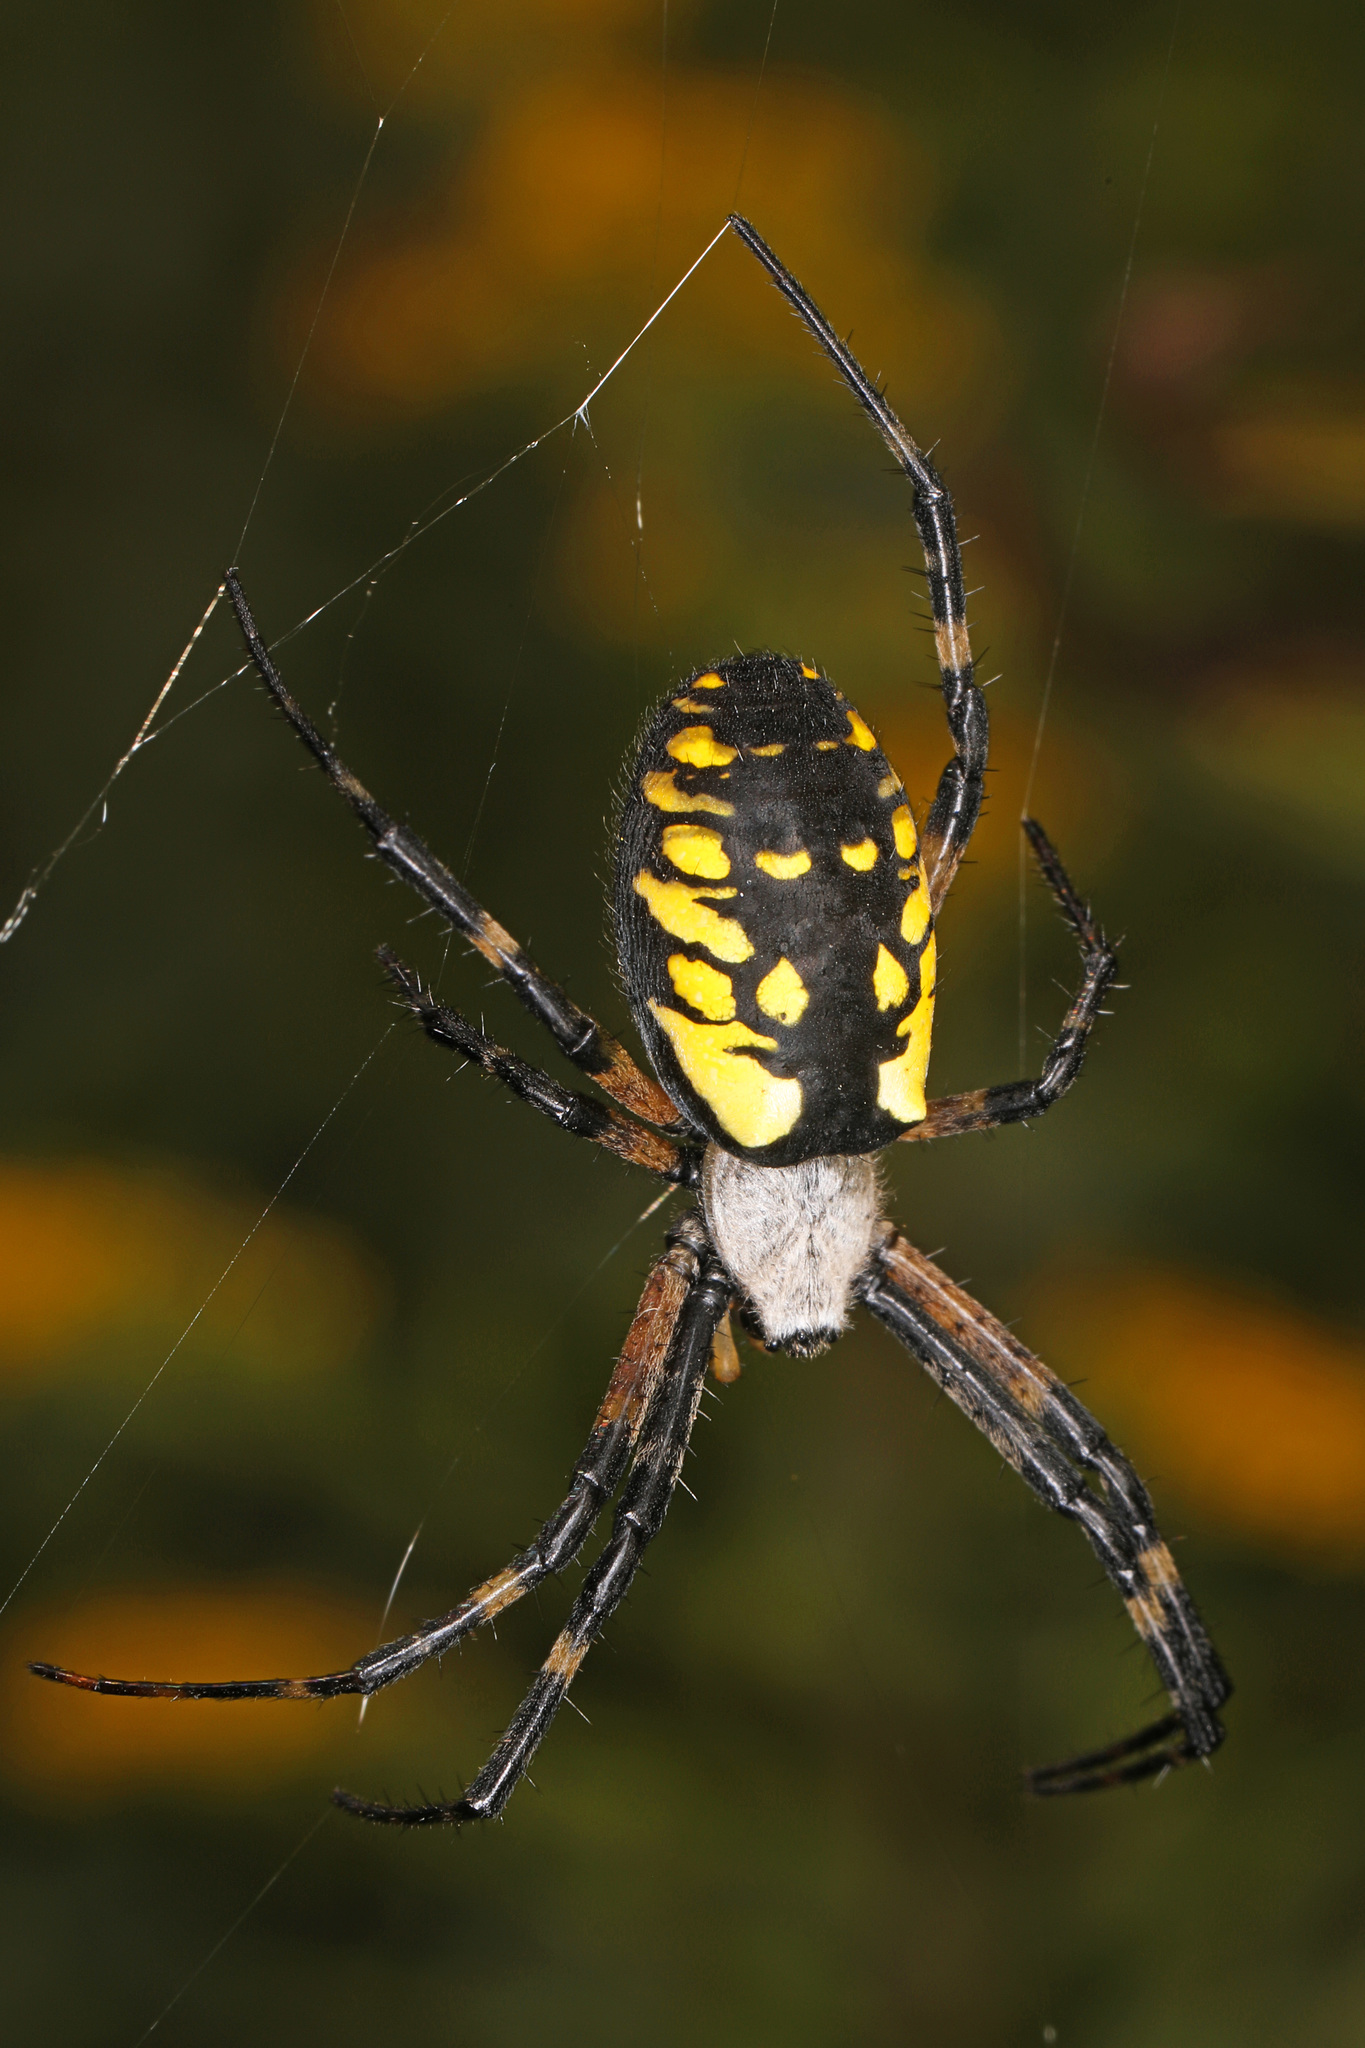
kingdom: Animalia
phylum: Arthropoda
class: Arachnida
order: Araneae
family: Araneidae
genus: Argiope
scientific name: Argiope aurantia
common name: Orb weavers
